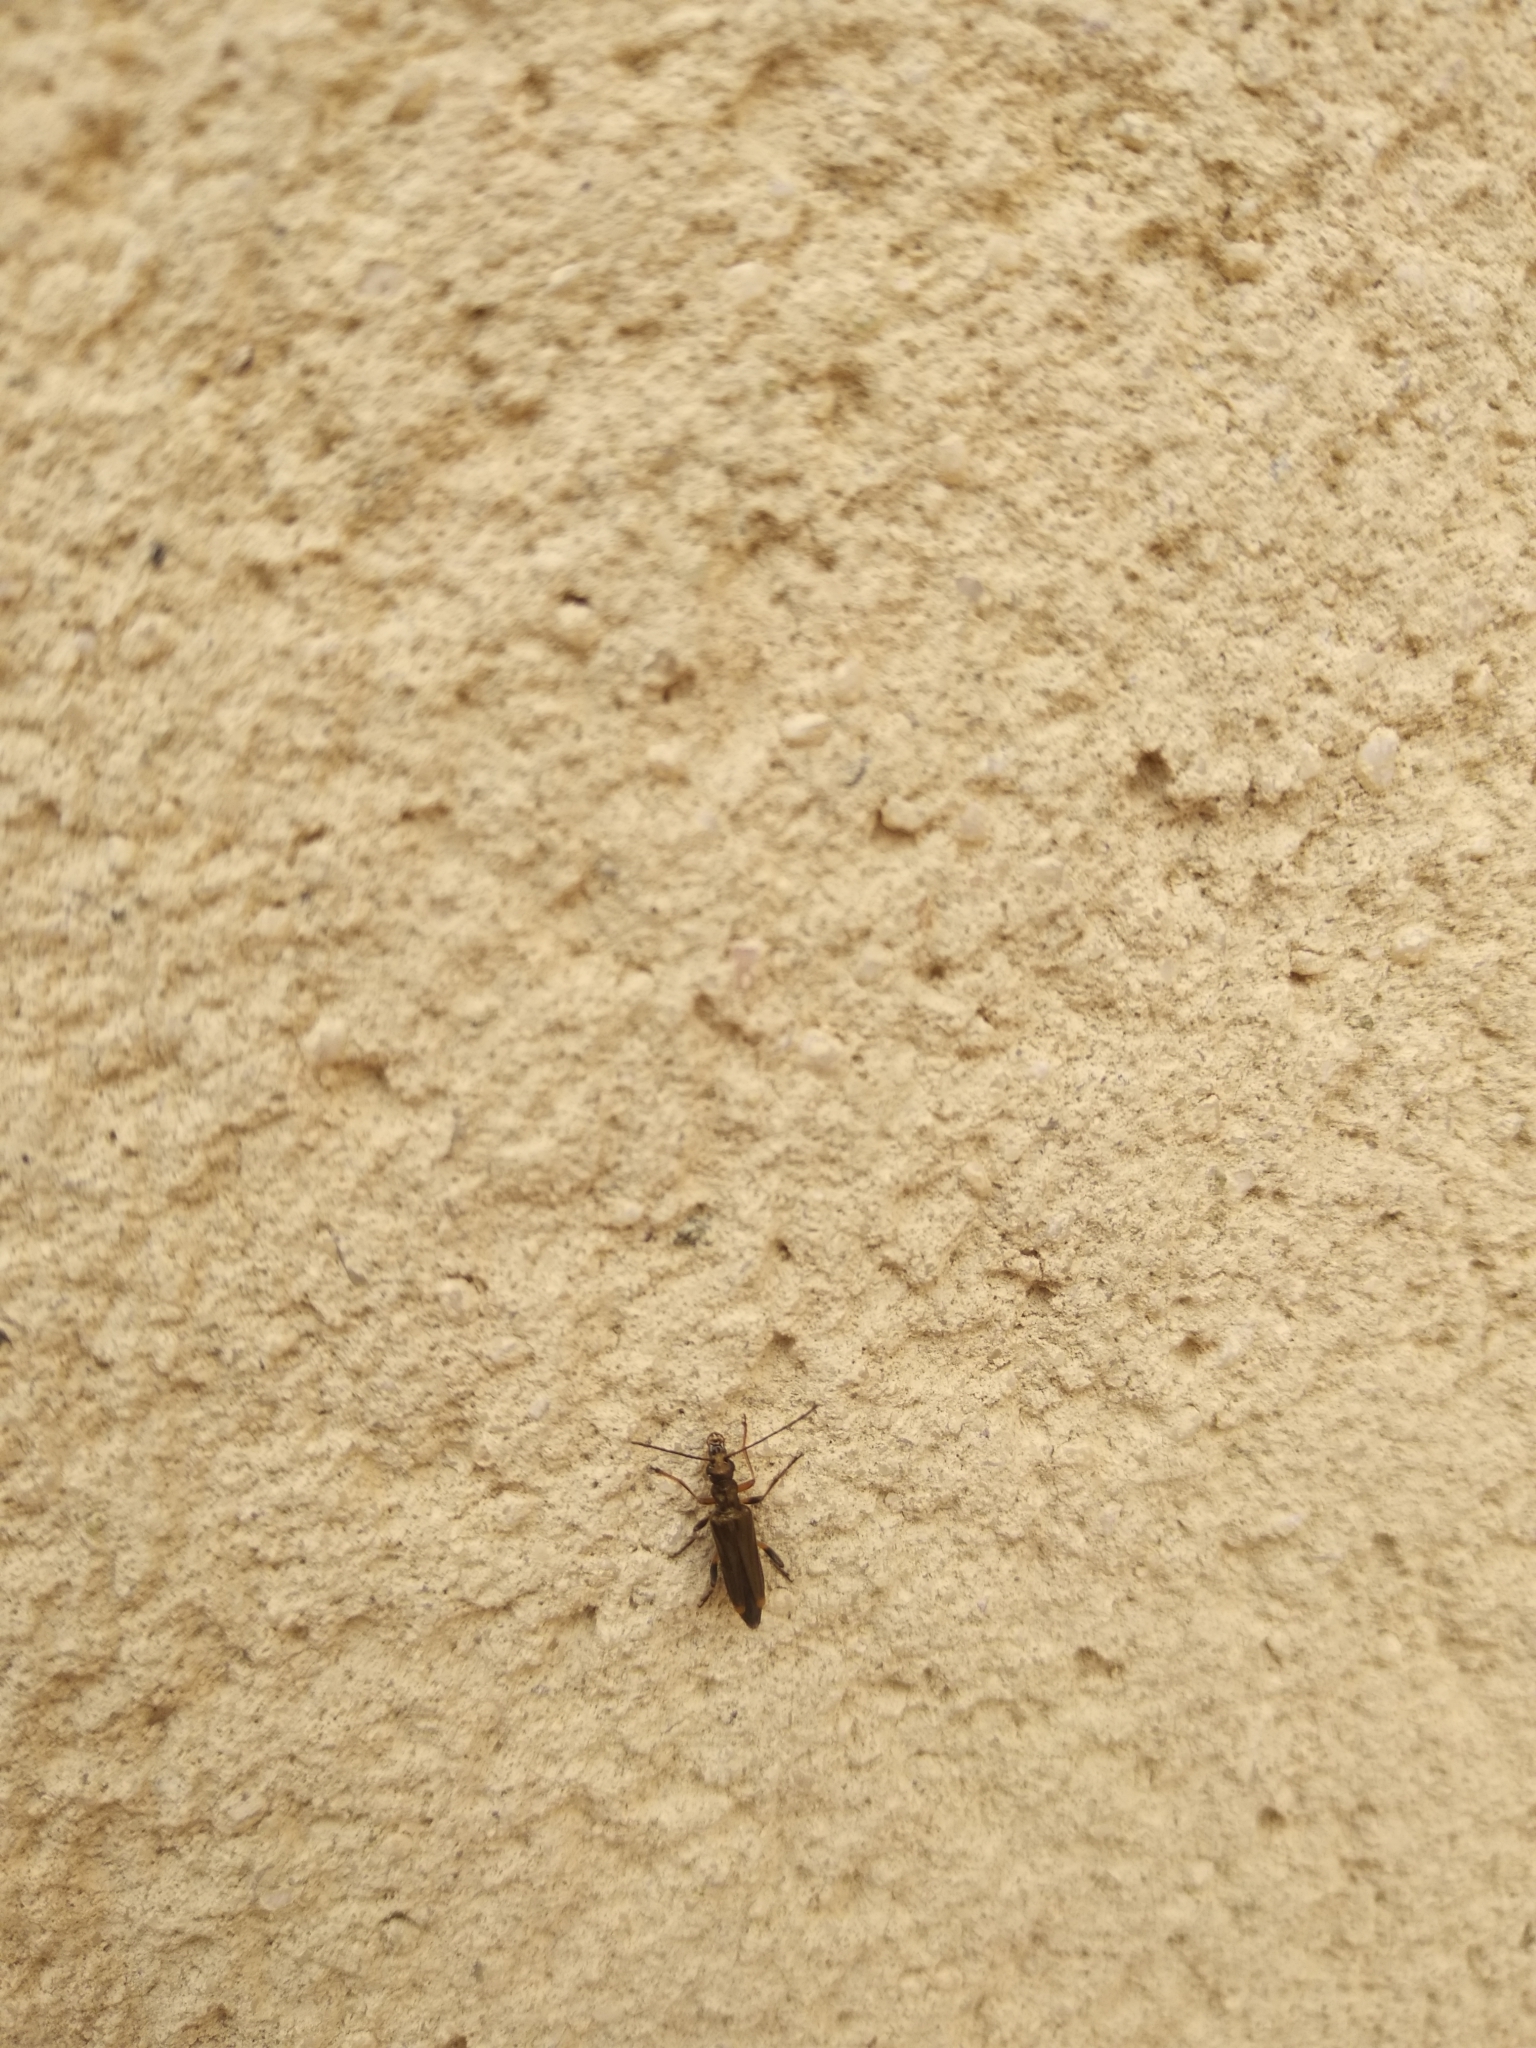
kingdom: Animalia
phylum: Arthropoda
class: Insecta
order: Coleoptera
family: Oedemeridae
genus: Oedemera
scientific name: Oedemera barbara
